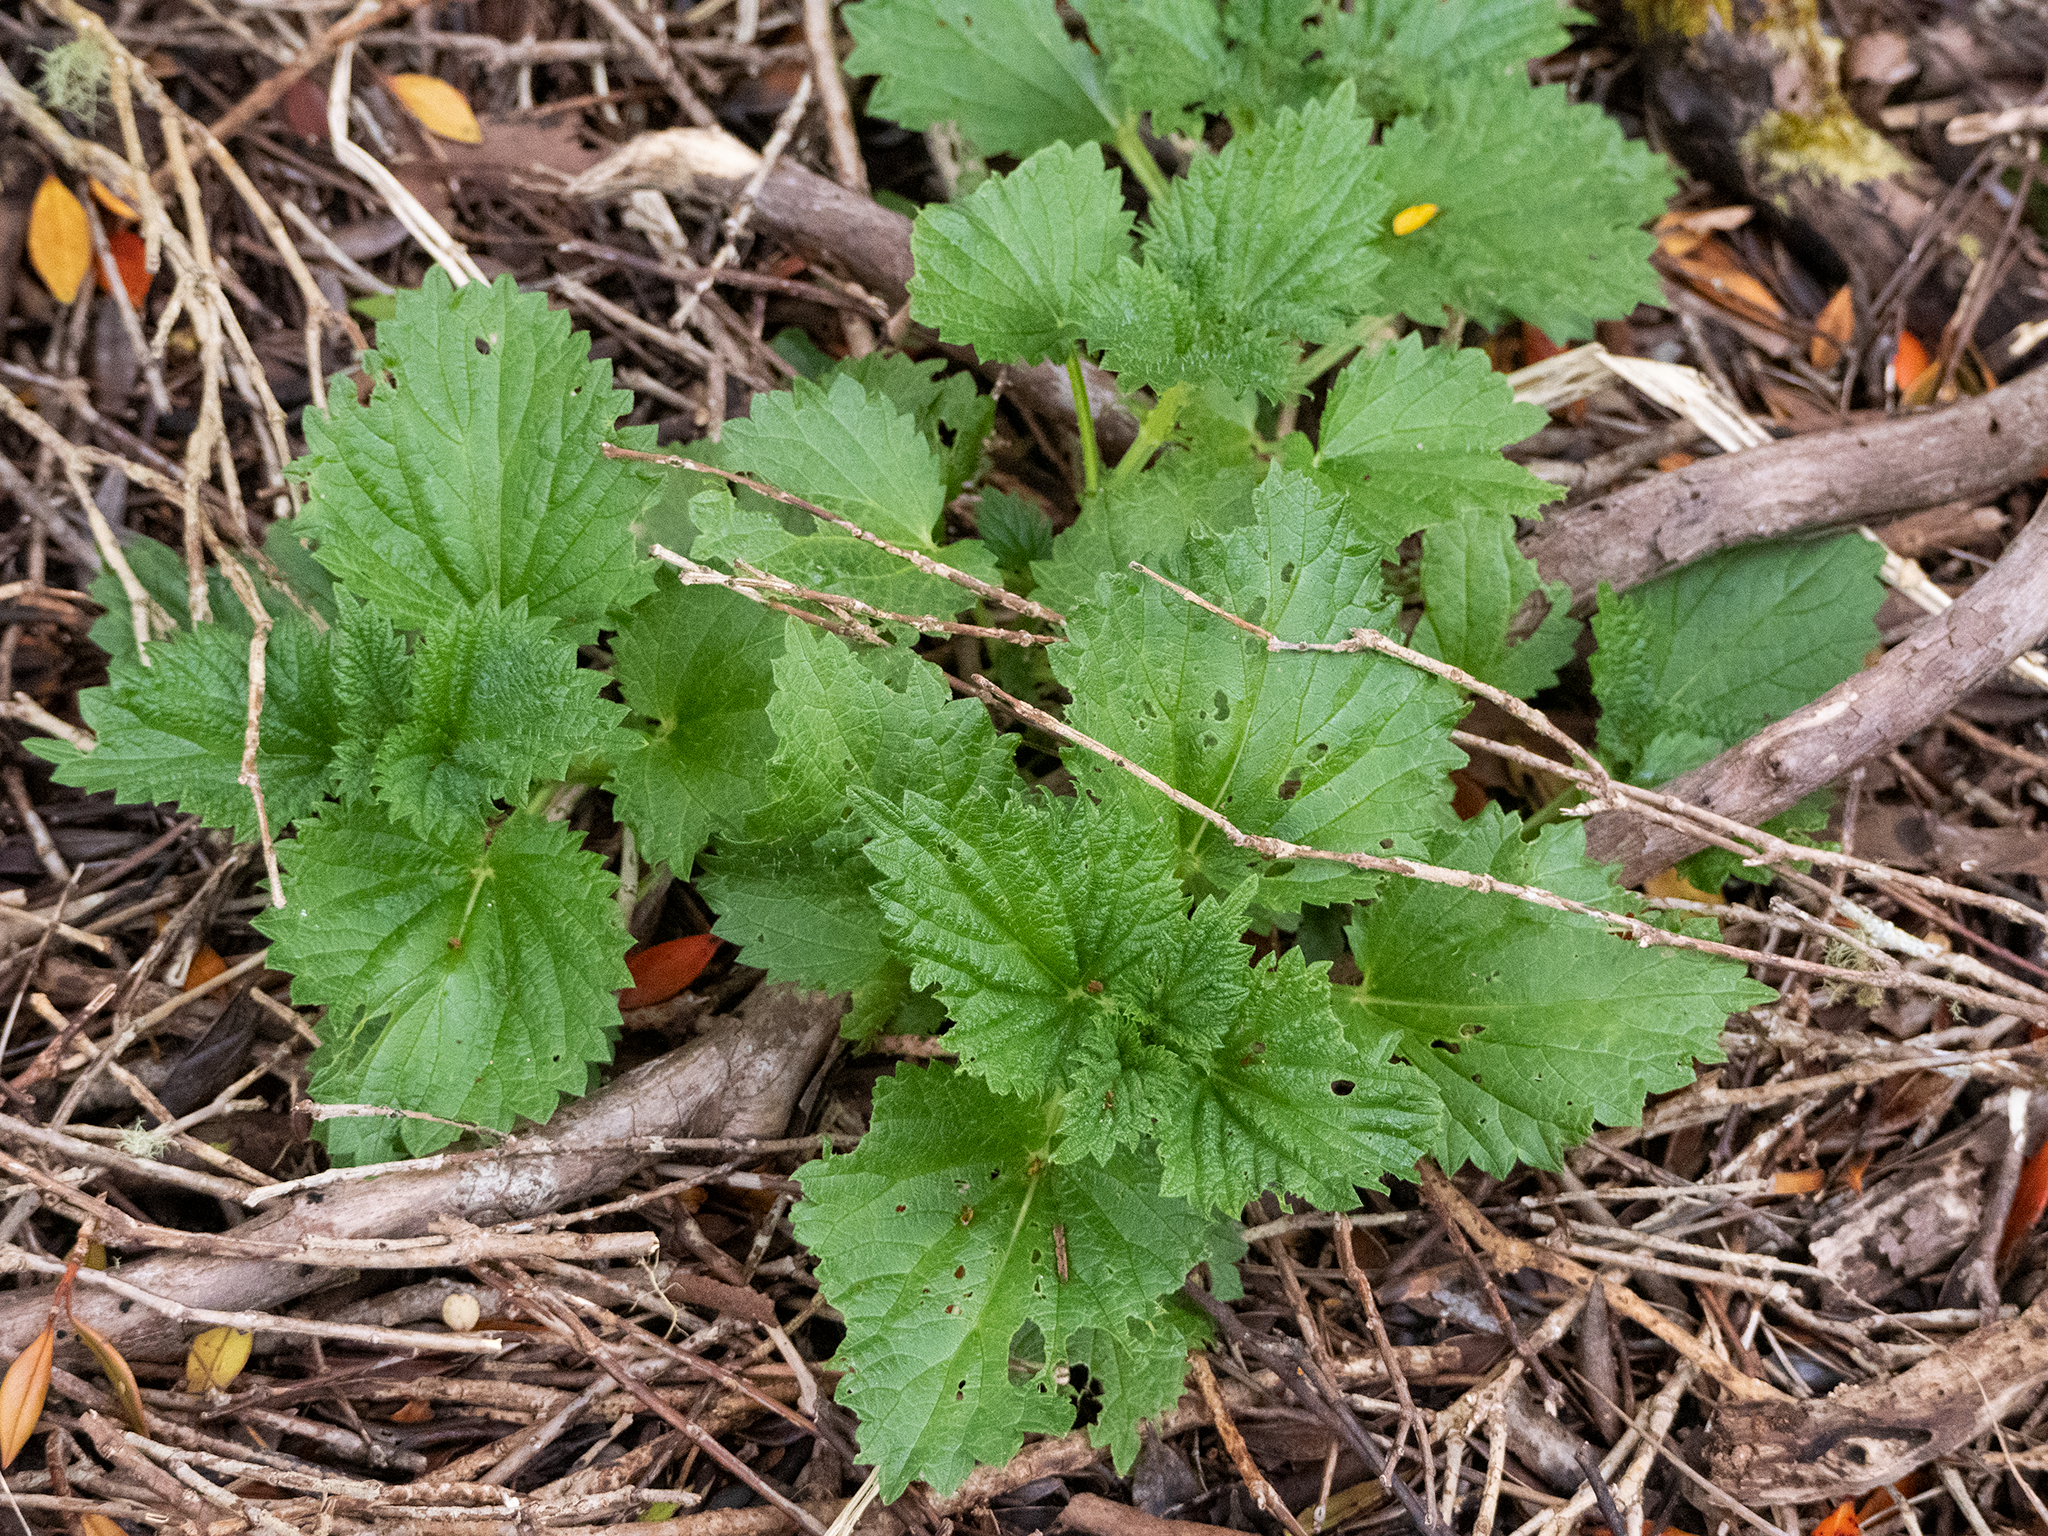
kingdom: Plantae
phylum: Tracheophyta
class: Magnoliopsida
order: Rosales
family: Urticaceae
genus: Urtica
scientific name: Urtica australis
